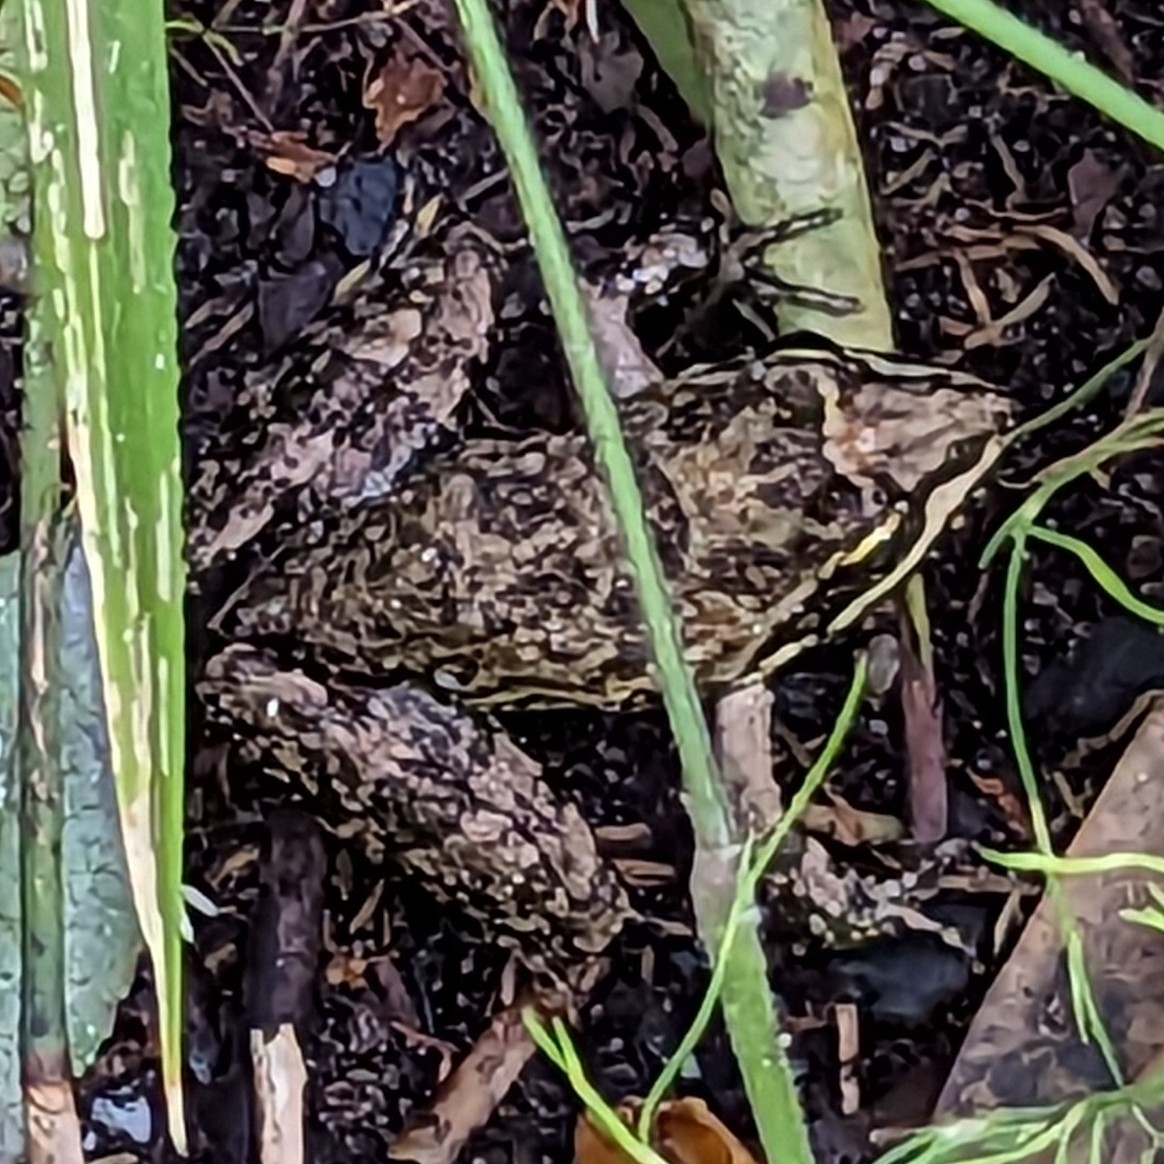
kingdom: Animalia
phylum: Chordata
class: Amphibia
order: Anura
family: Pyxicephalidae
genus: Amietia
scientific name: Amietia fuscigula
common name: Cape rana
